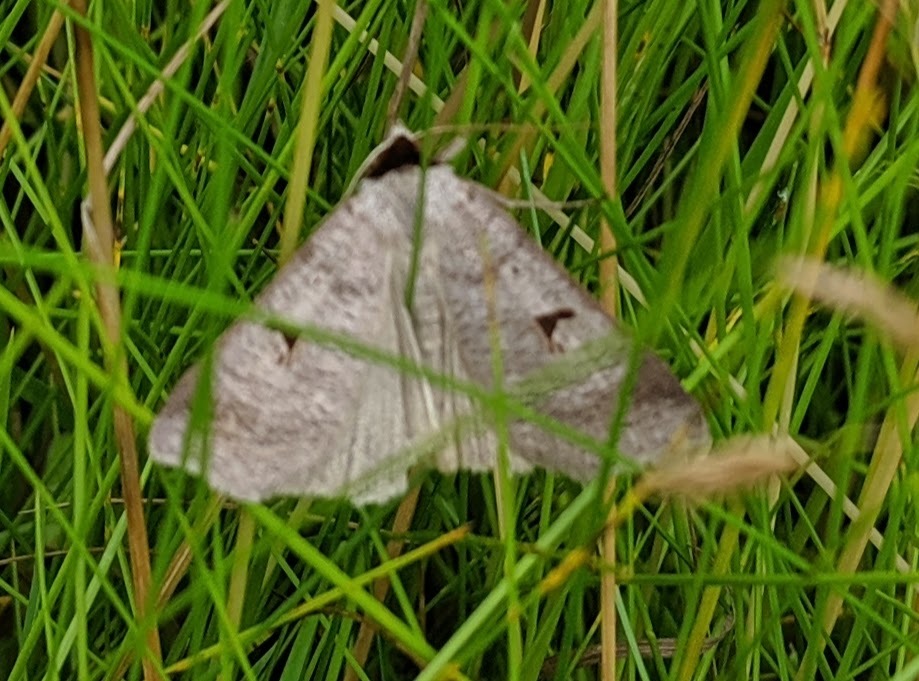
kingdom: Animalia
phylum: Arthropoda
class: Insecta
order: Lepidoptera
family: Erebidae
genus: Lygephila
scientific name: Lygephila pastinum
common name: Blackneck
